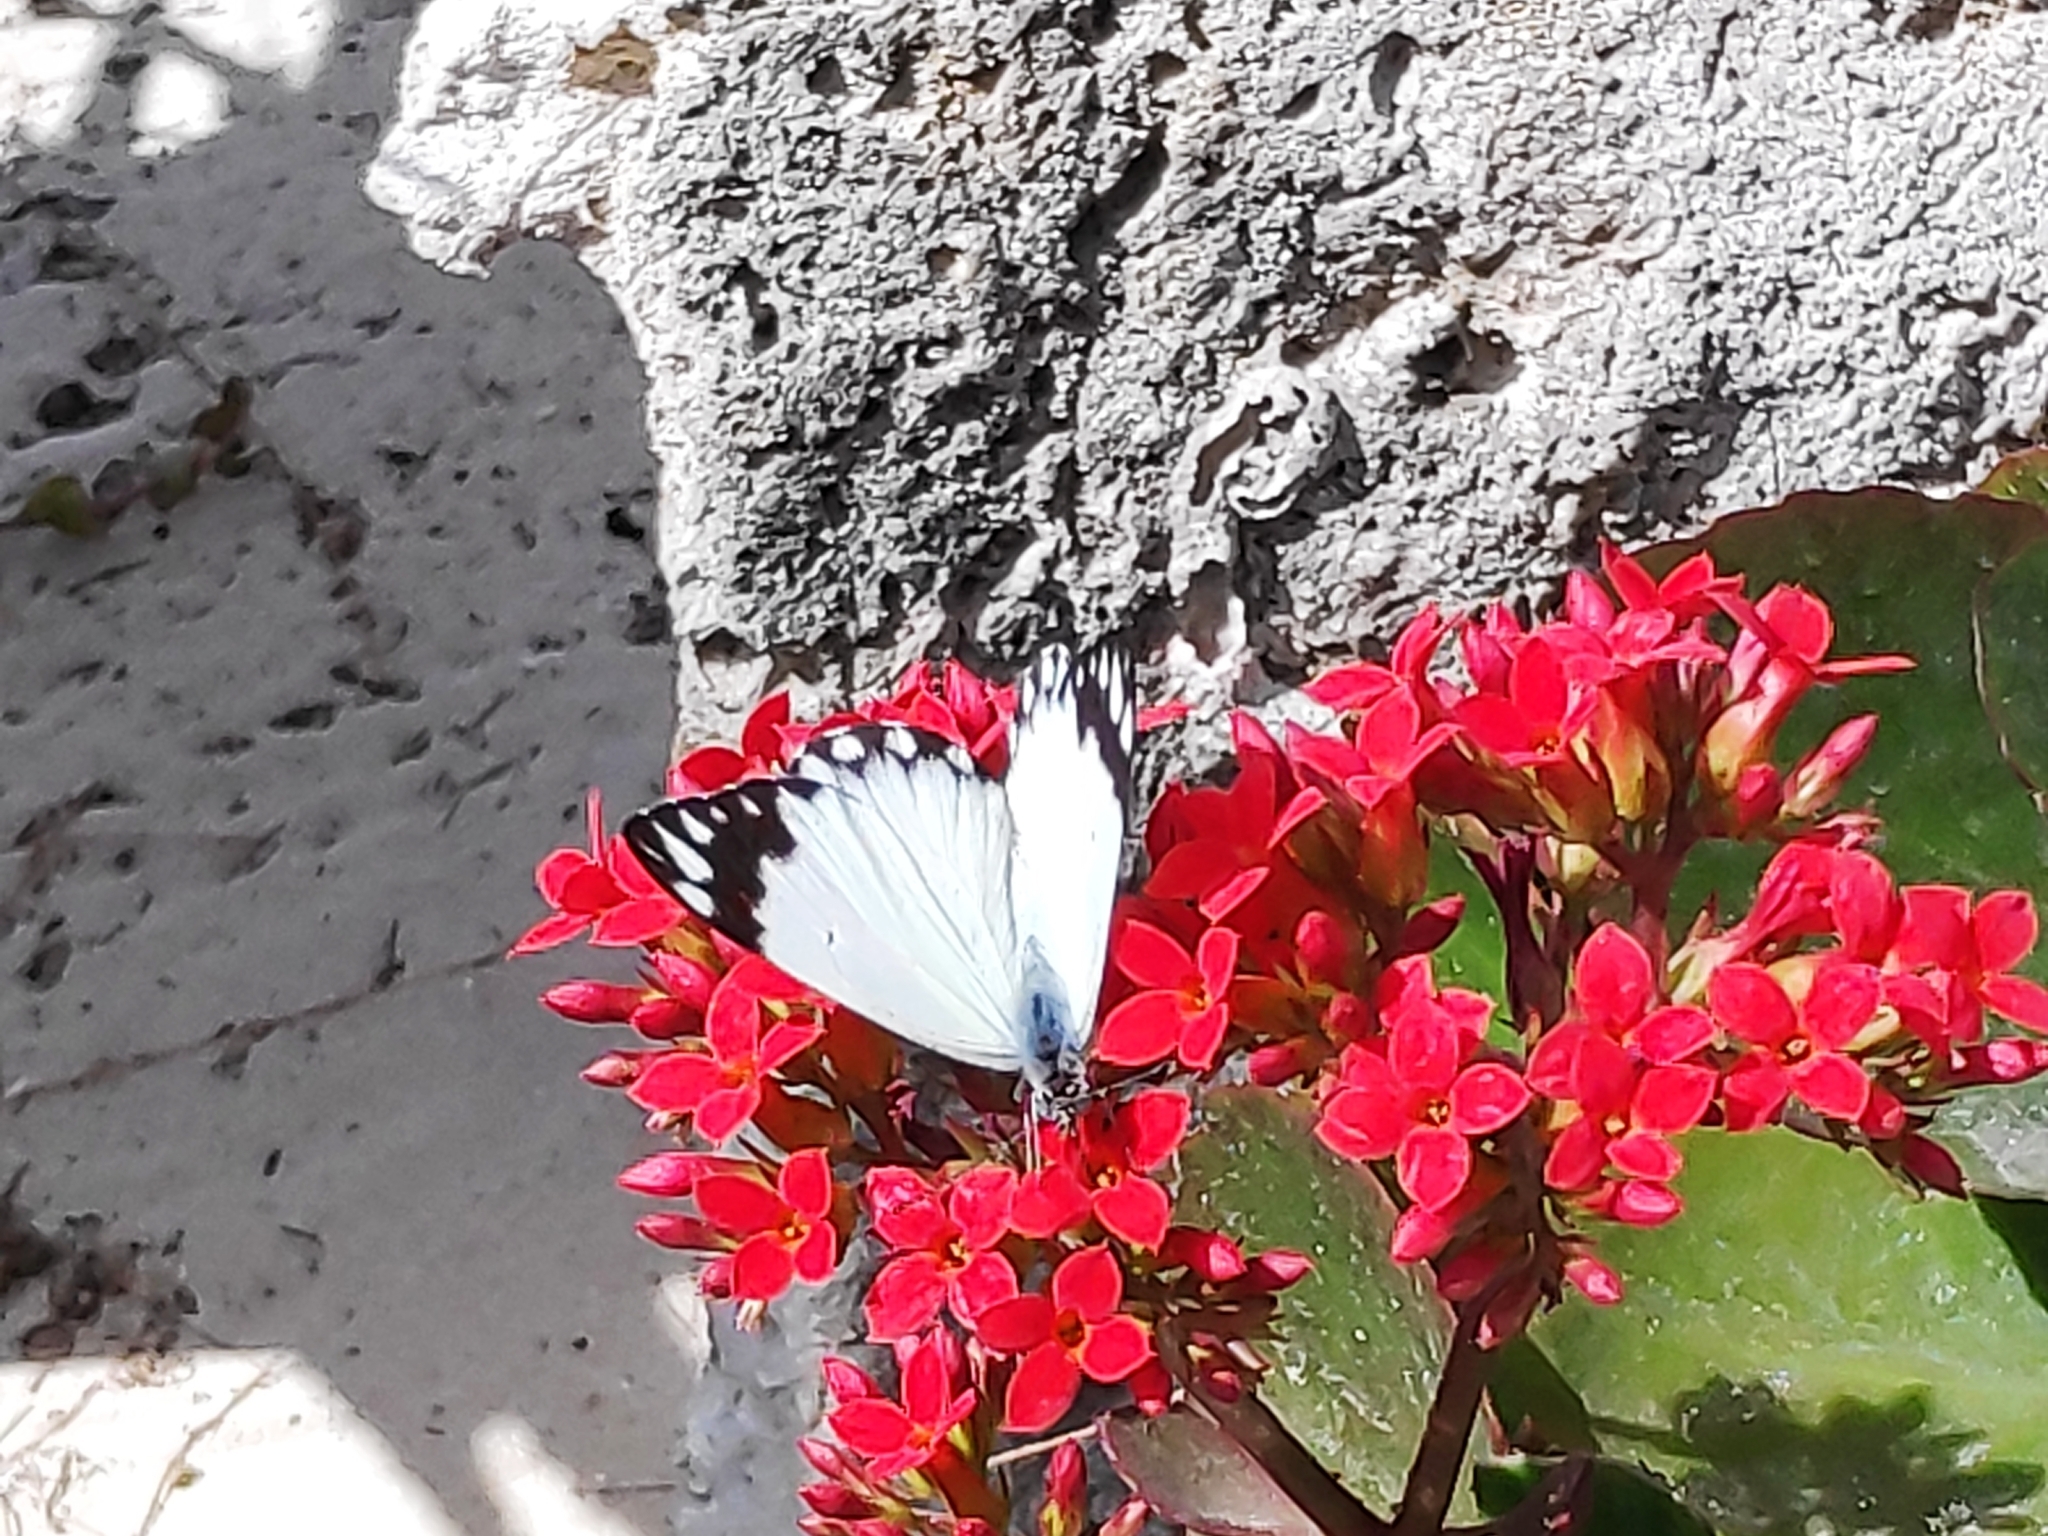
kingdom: Animalia
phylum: Arthropoda
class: Insecta
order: Lepidoptera
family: Pieridae
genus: Belenois
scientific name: Belenois creona
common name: African caper white
